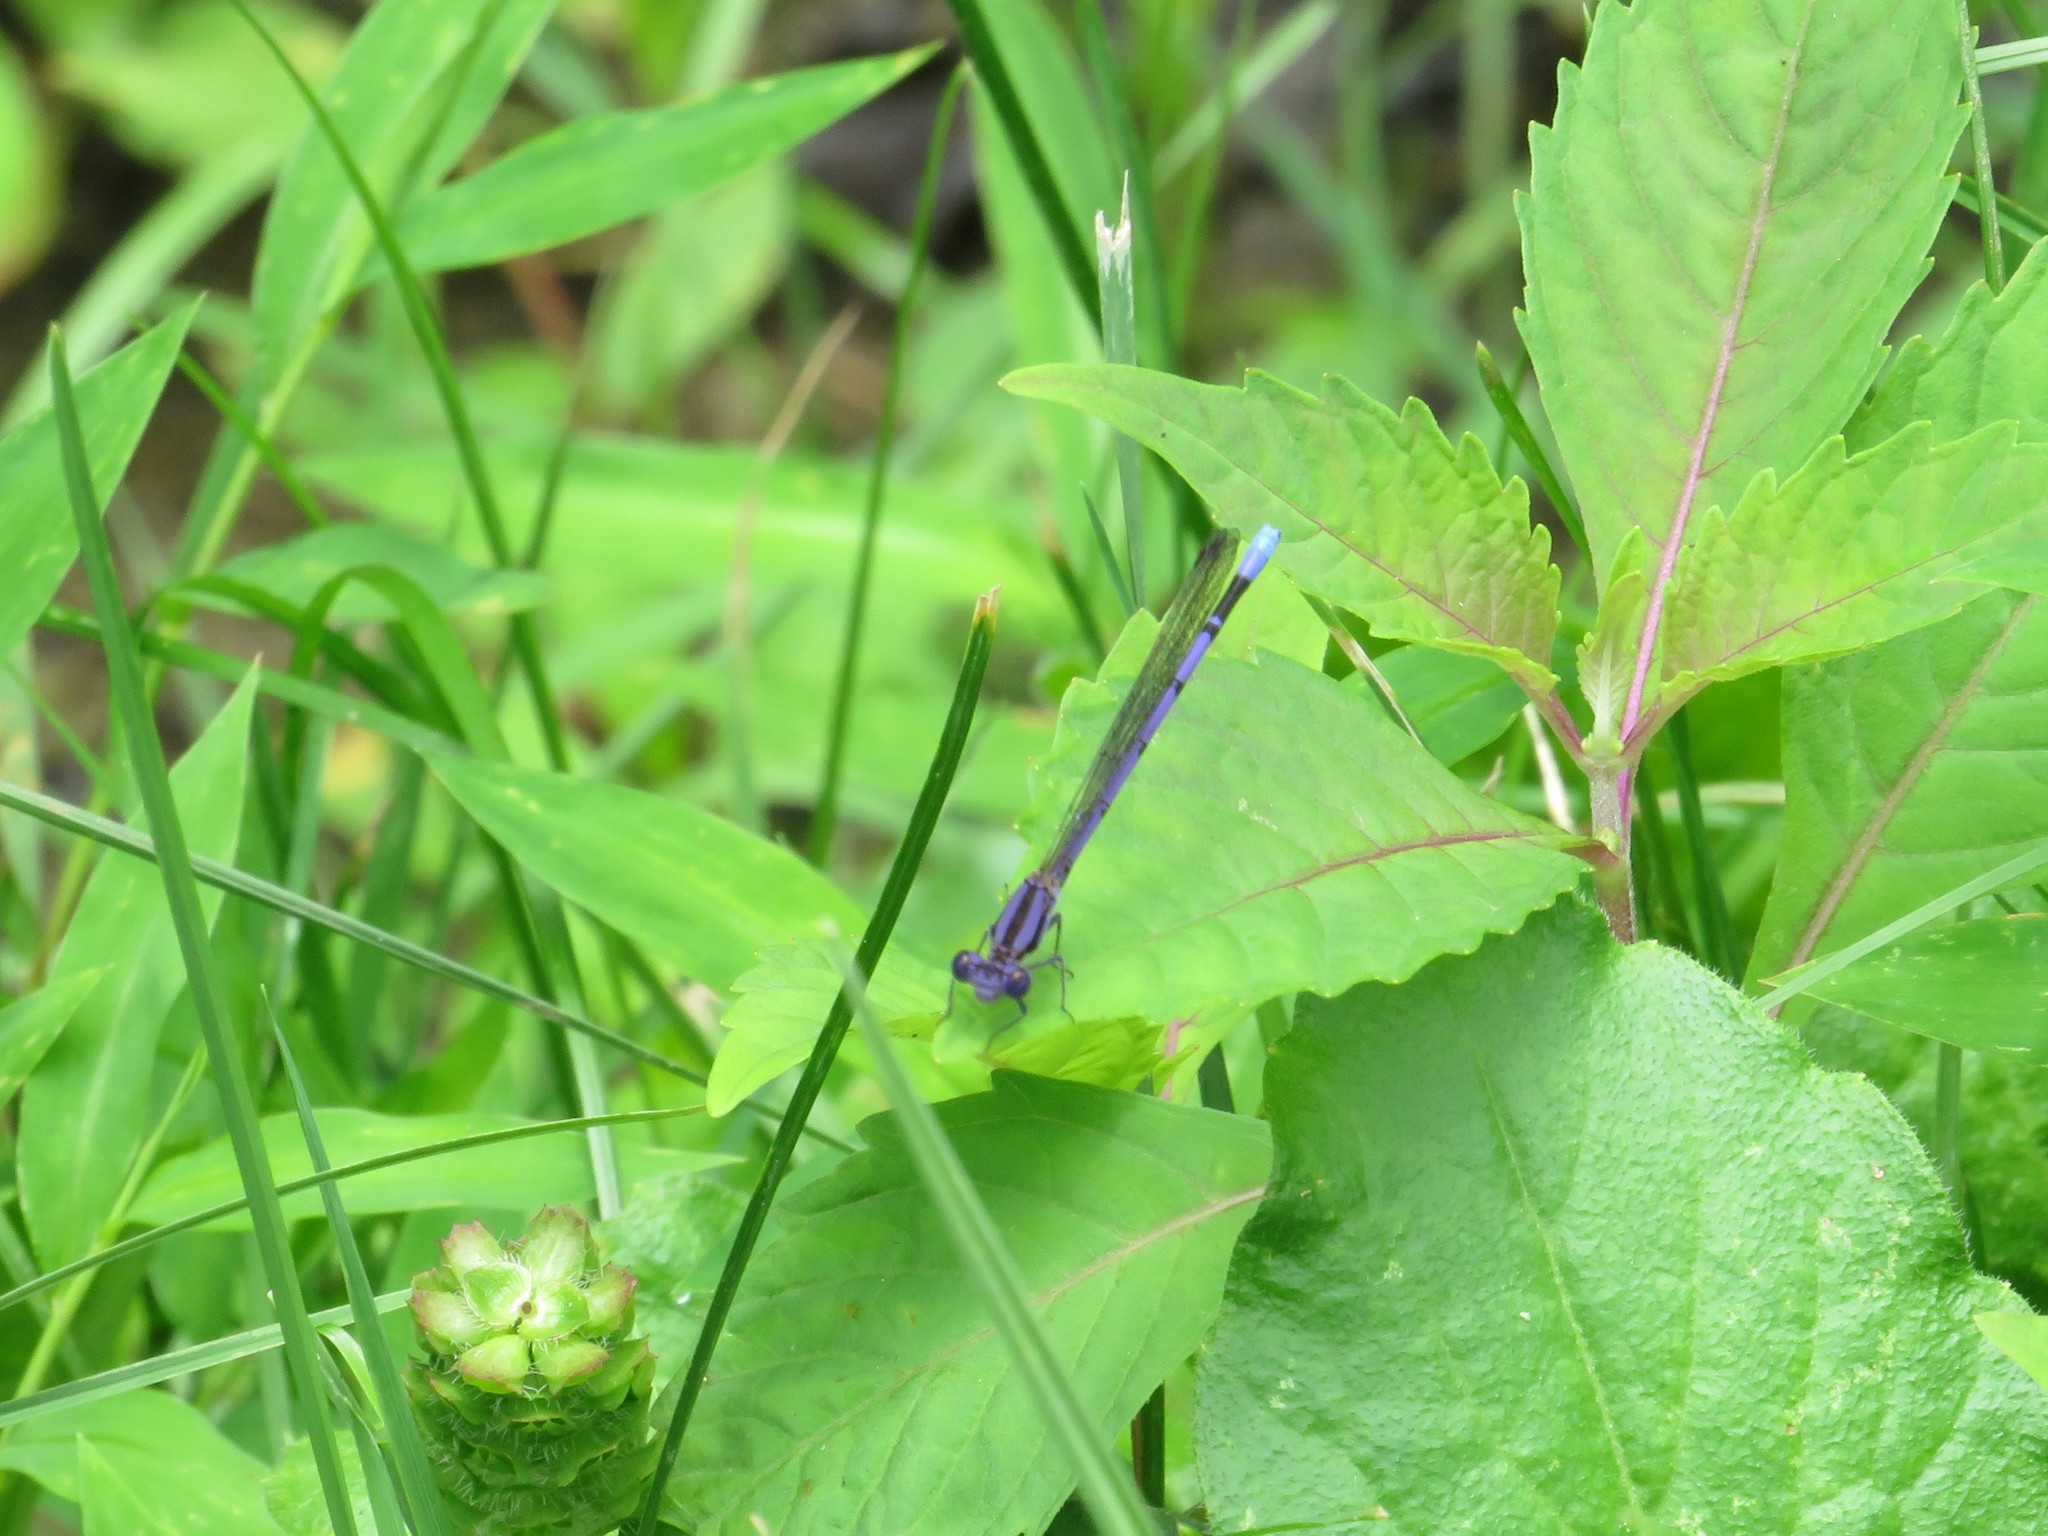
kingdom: Animalia
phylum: Arthropoda
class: Insecta
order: Odonata
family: Coenagrionidae
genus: Argia
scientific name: Argia fumipennis
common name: Variable dancer
